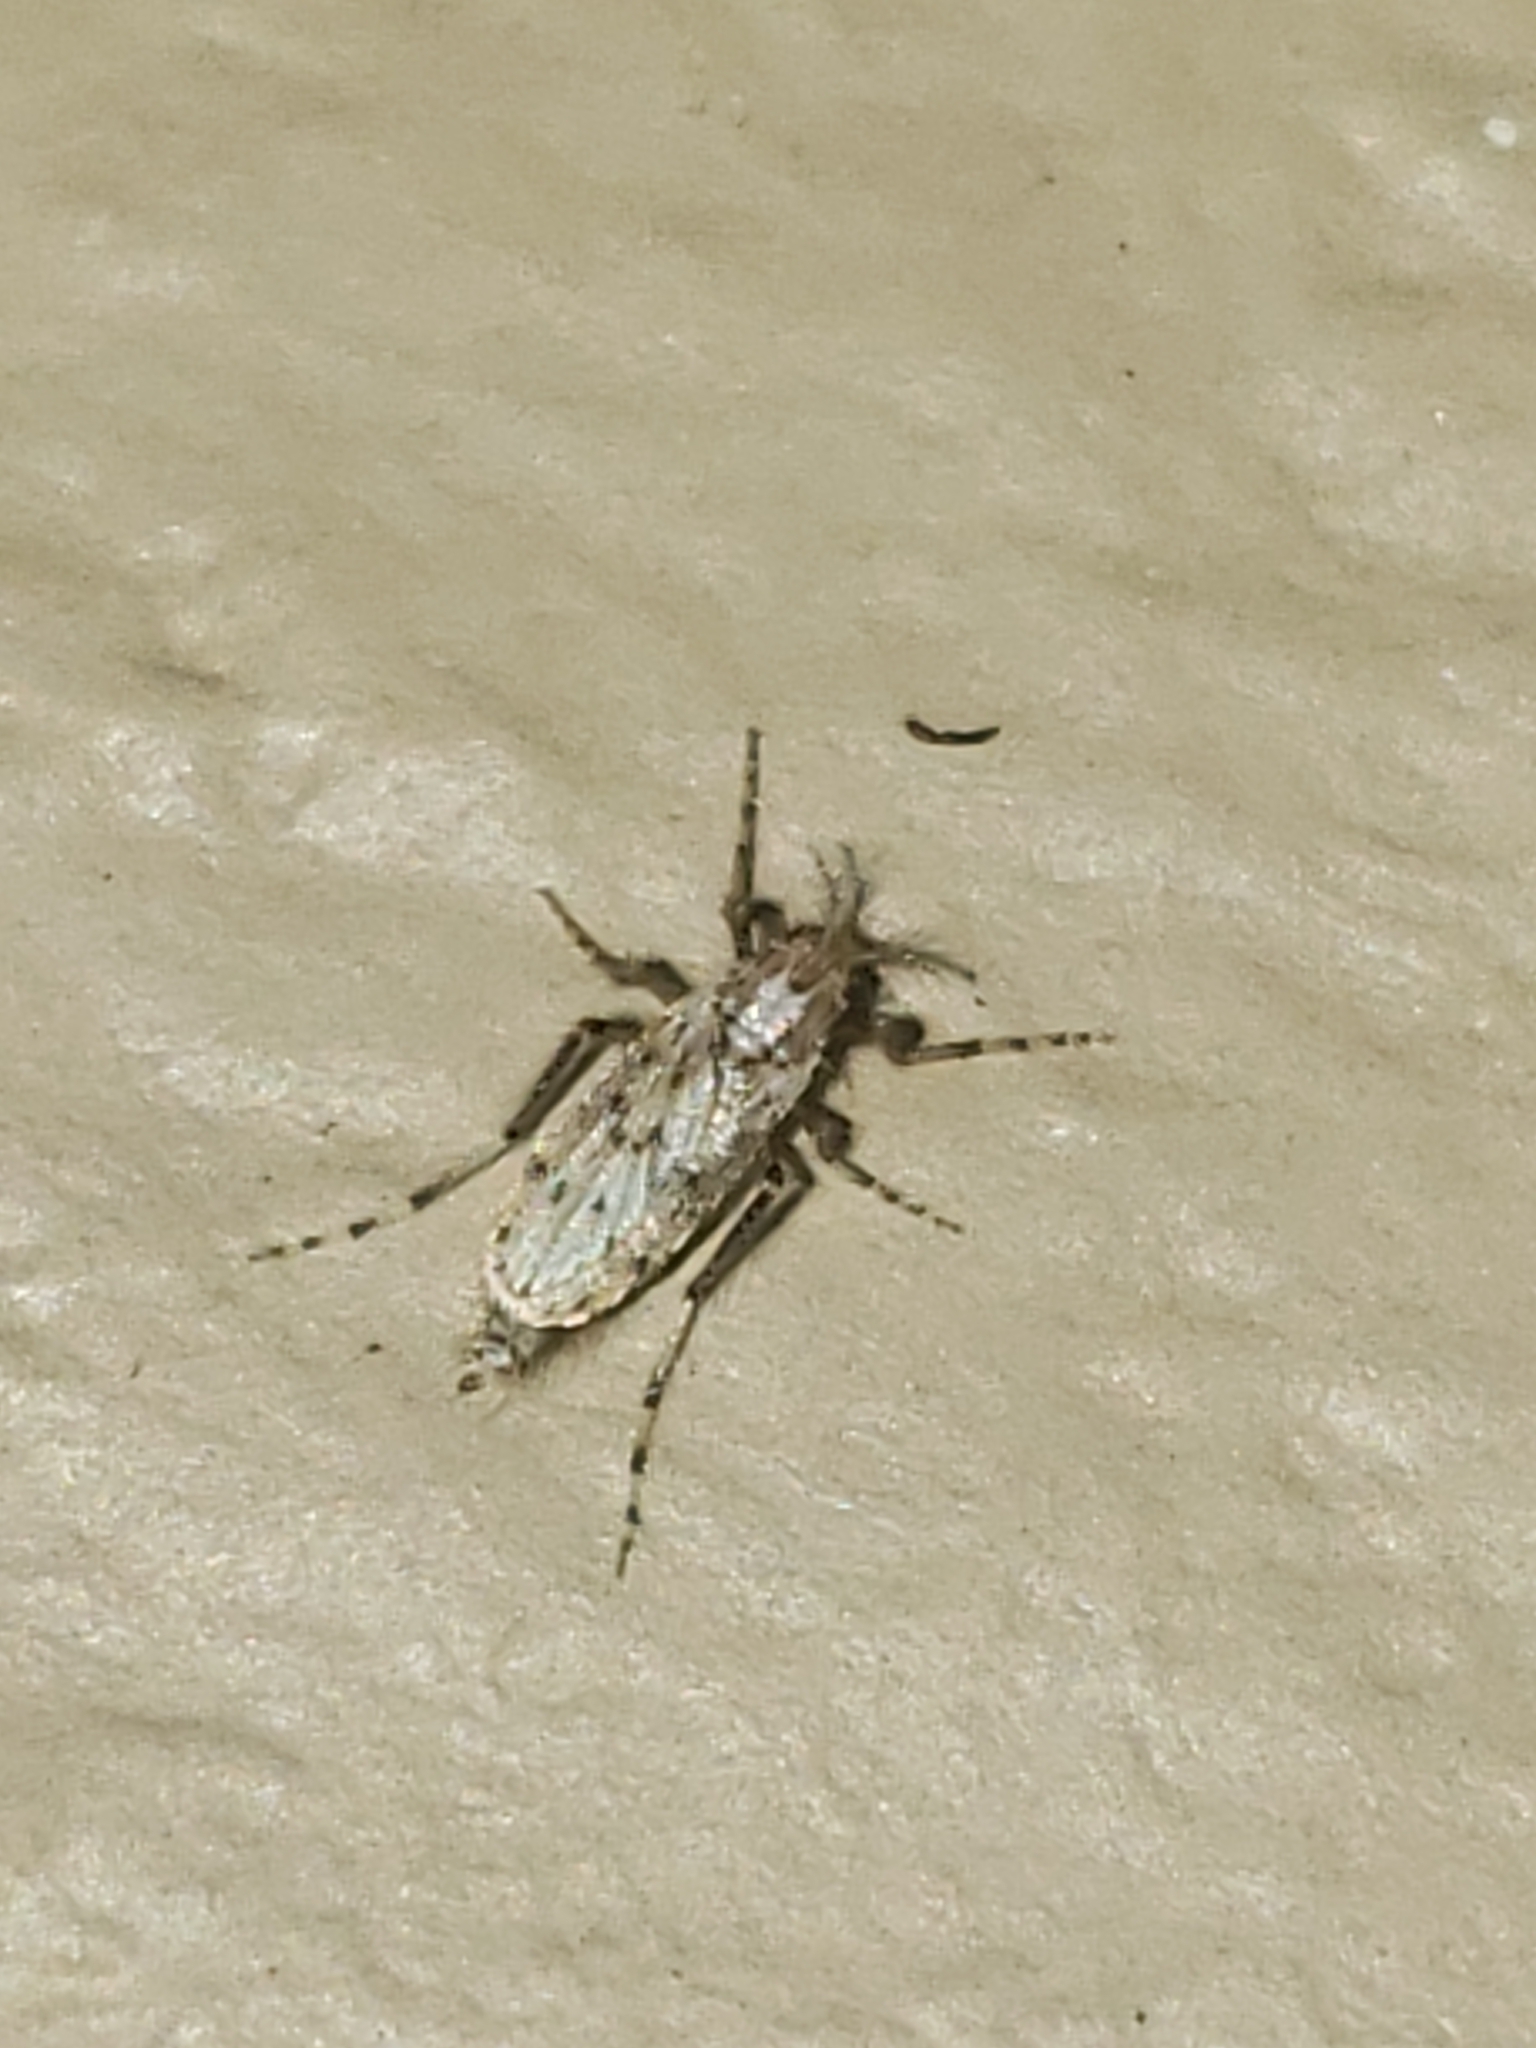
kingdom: Animalia
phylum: Arthropoda
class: Insecta
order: Diptera
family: Chaoboridae
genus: Chaoborus
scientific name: Chaoborus punctipennis
